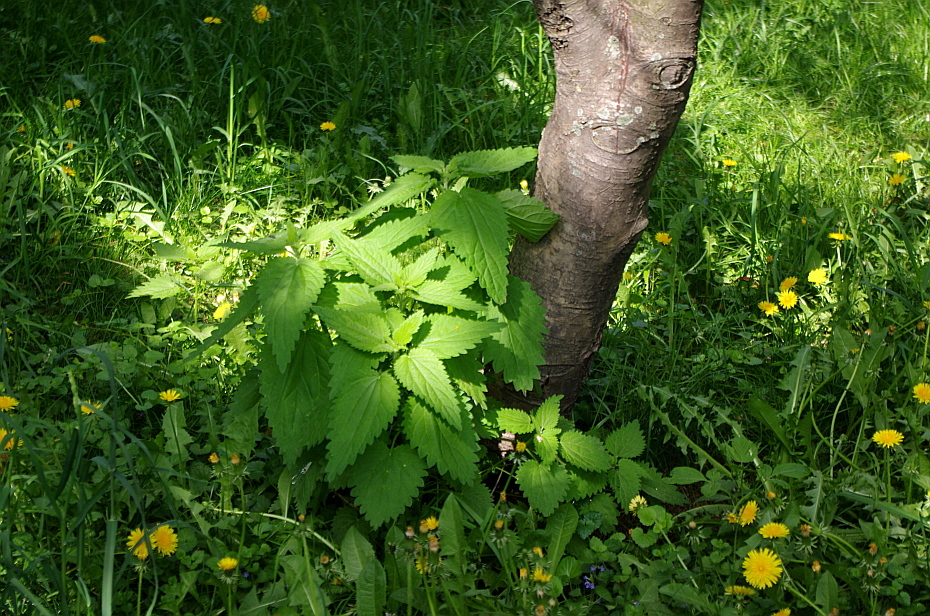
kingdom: Plantae
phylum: Tracheophyta
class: Magnoliopsida
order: Rosales
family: Urticaceae
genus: Urtica
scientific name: Urtica dioica
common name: Common nettle
